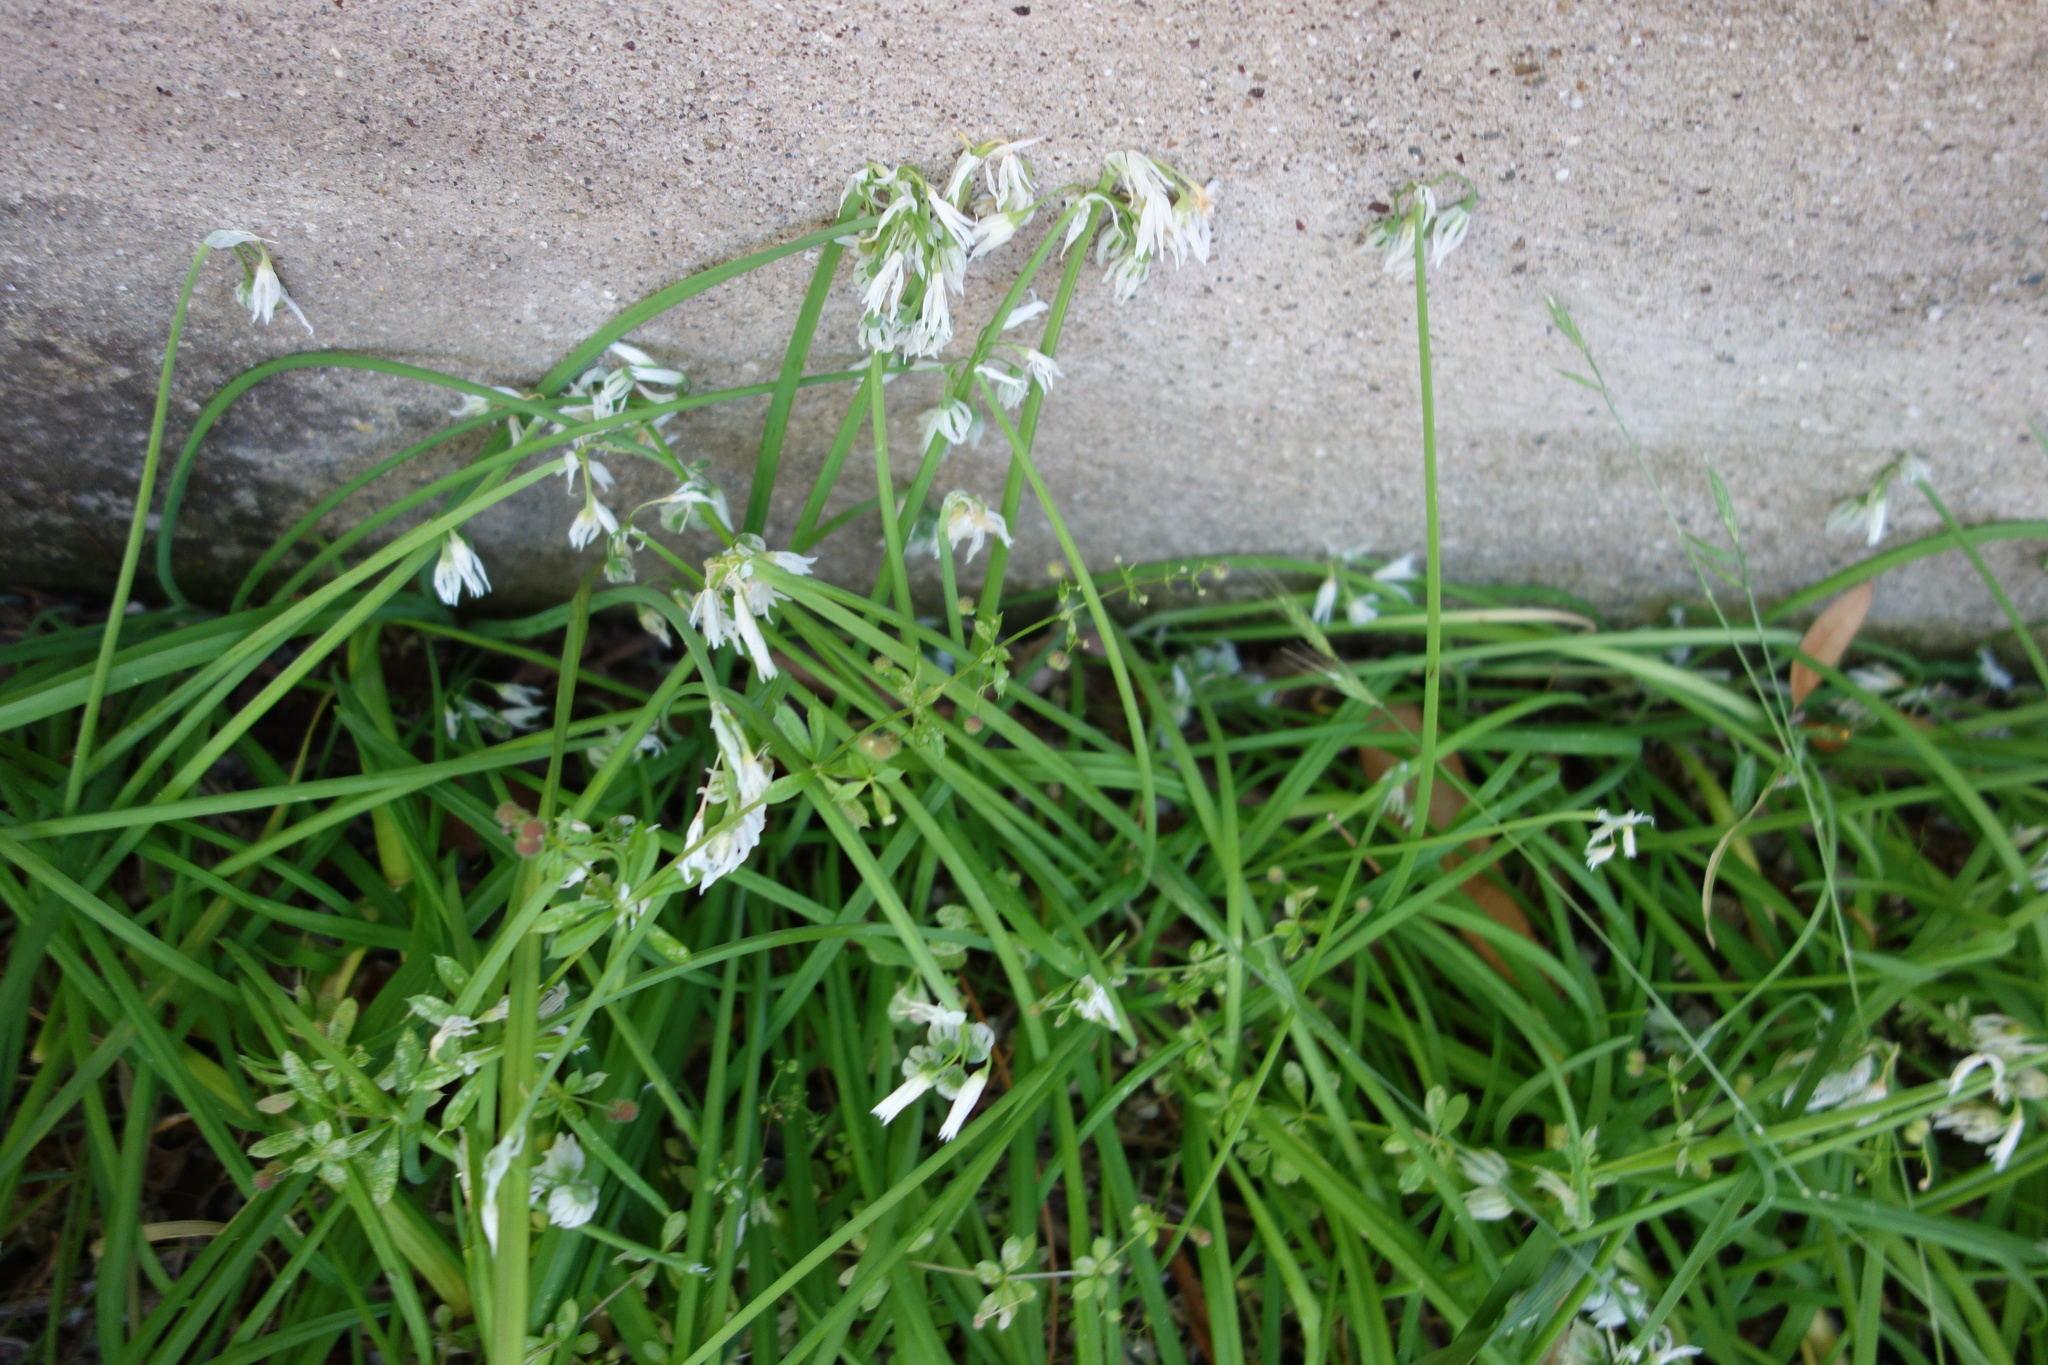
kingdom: Plantae
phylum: Tracheophyta
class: Liliopsida
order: Asparagales
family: Amaryllidaceae
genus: Allium
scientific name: Allium triquetrum
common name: Three-cornered garlic
